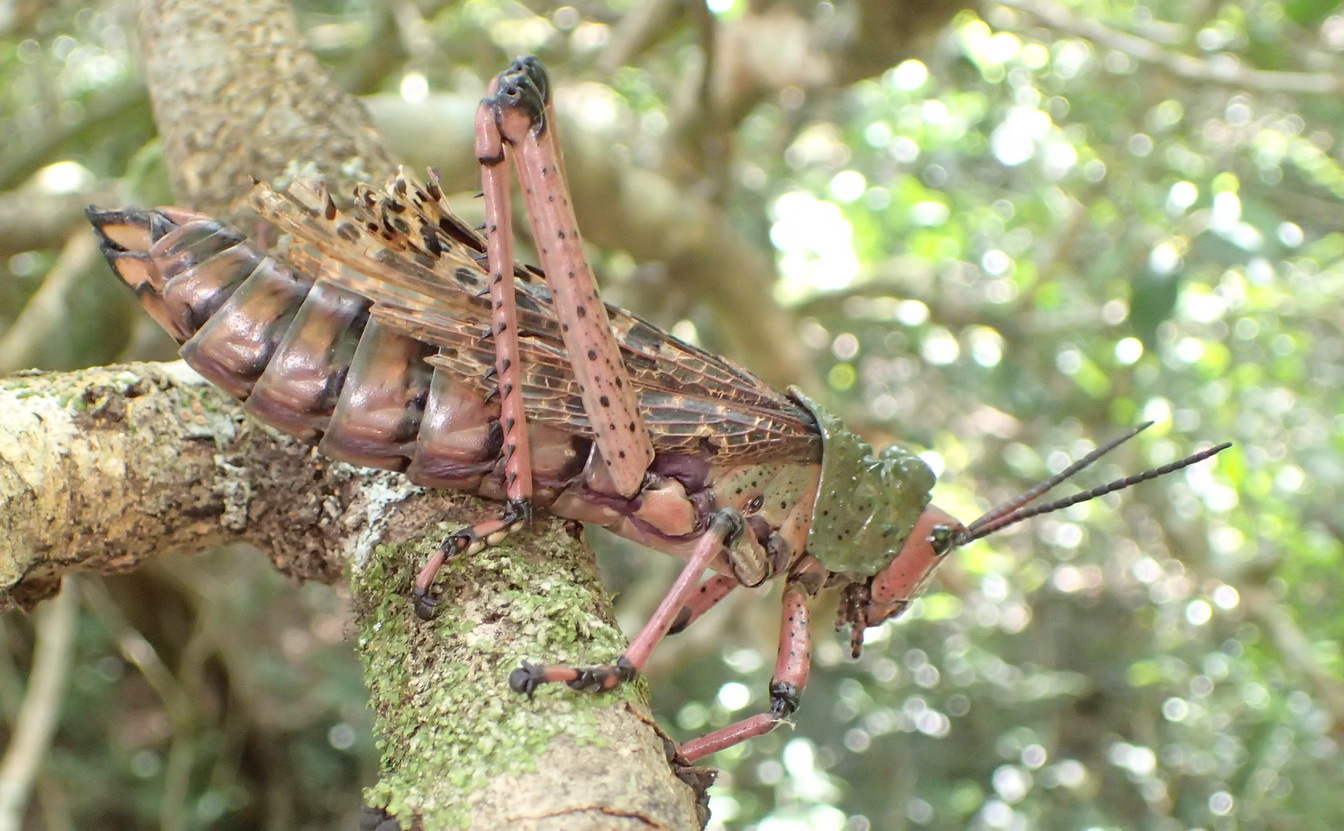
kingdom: Animalia
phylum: Arthropoda
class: Insecta
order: Orthoptera
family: Pyrgomorphidae
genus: Phymateus
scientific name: Phymateus leprosus
